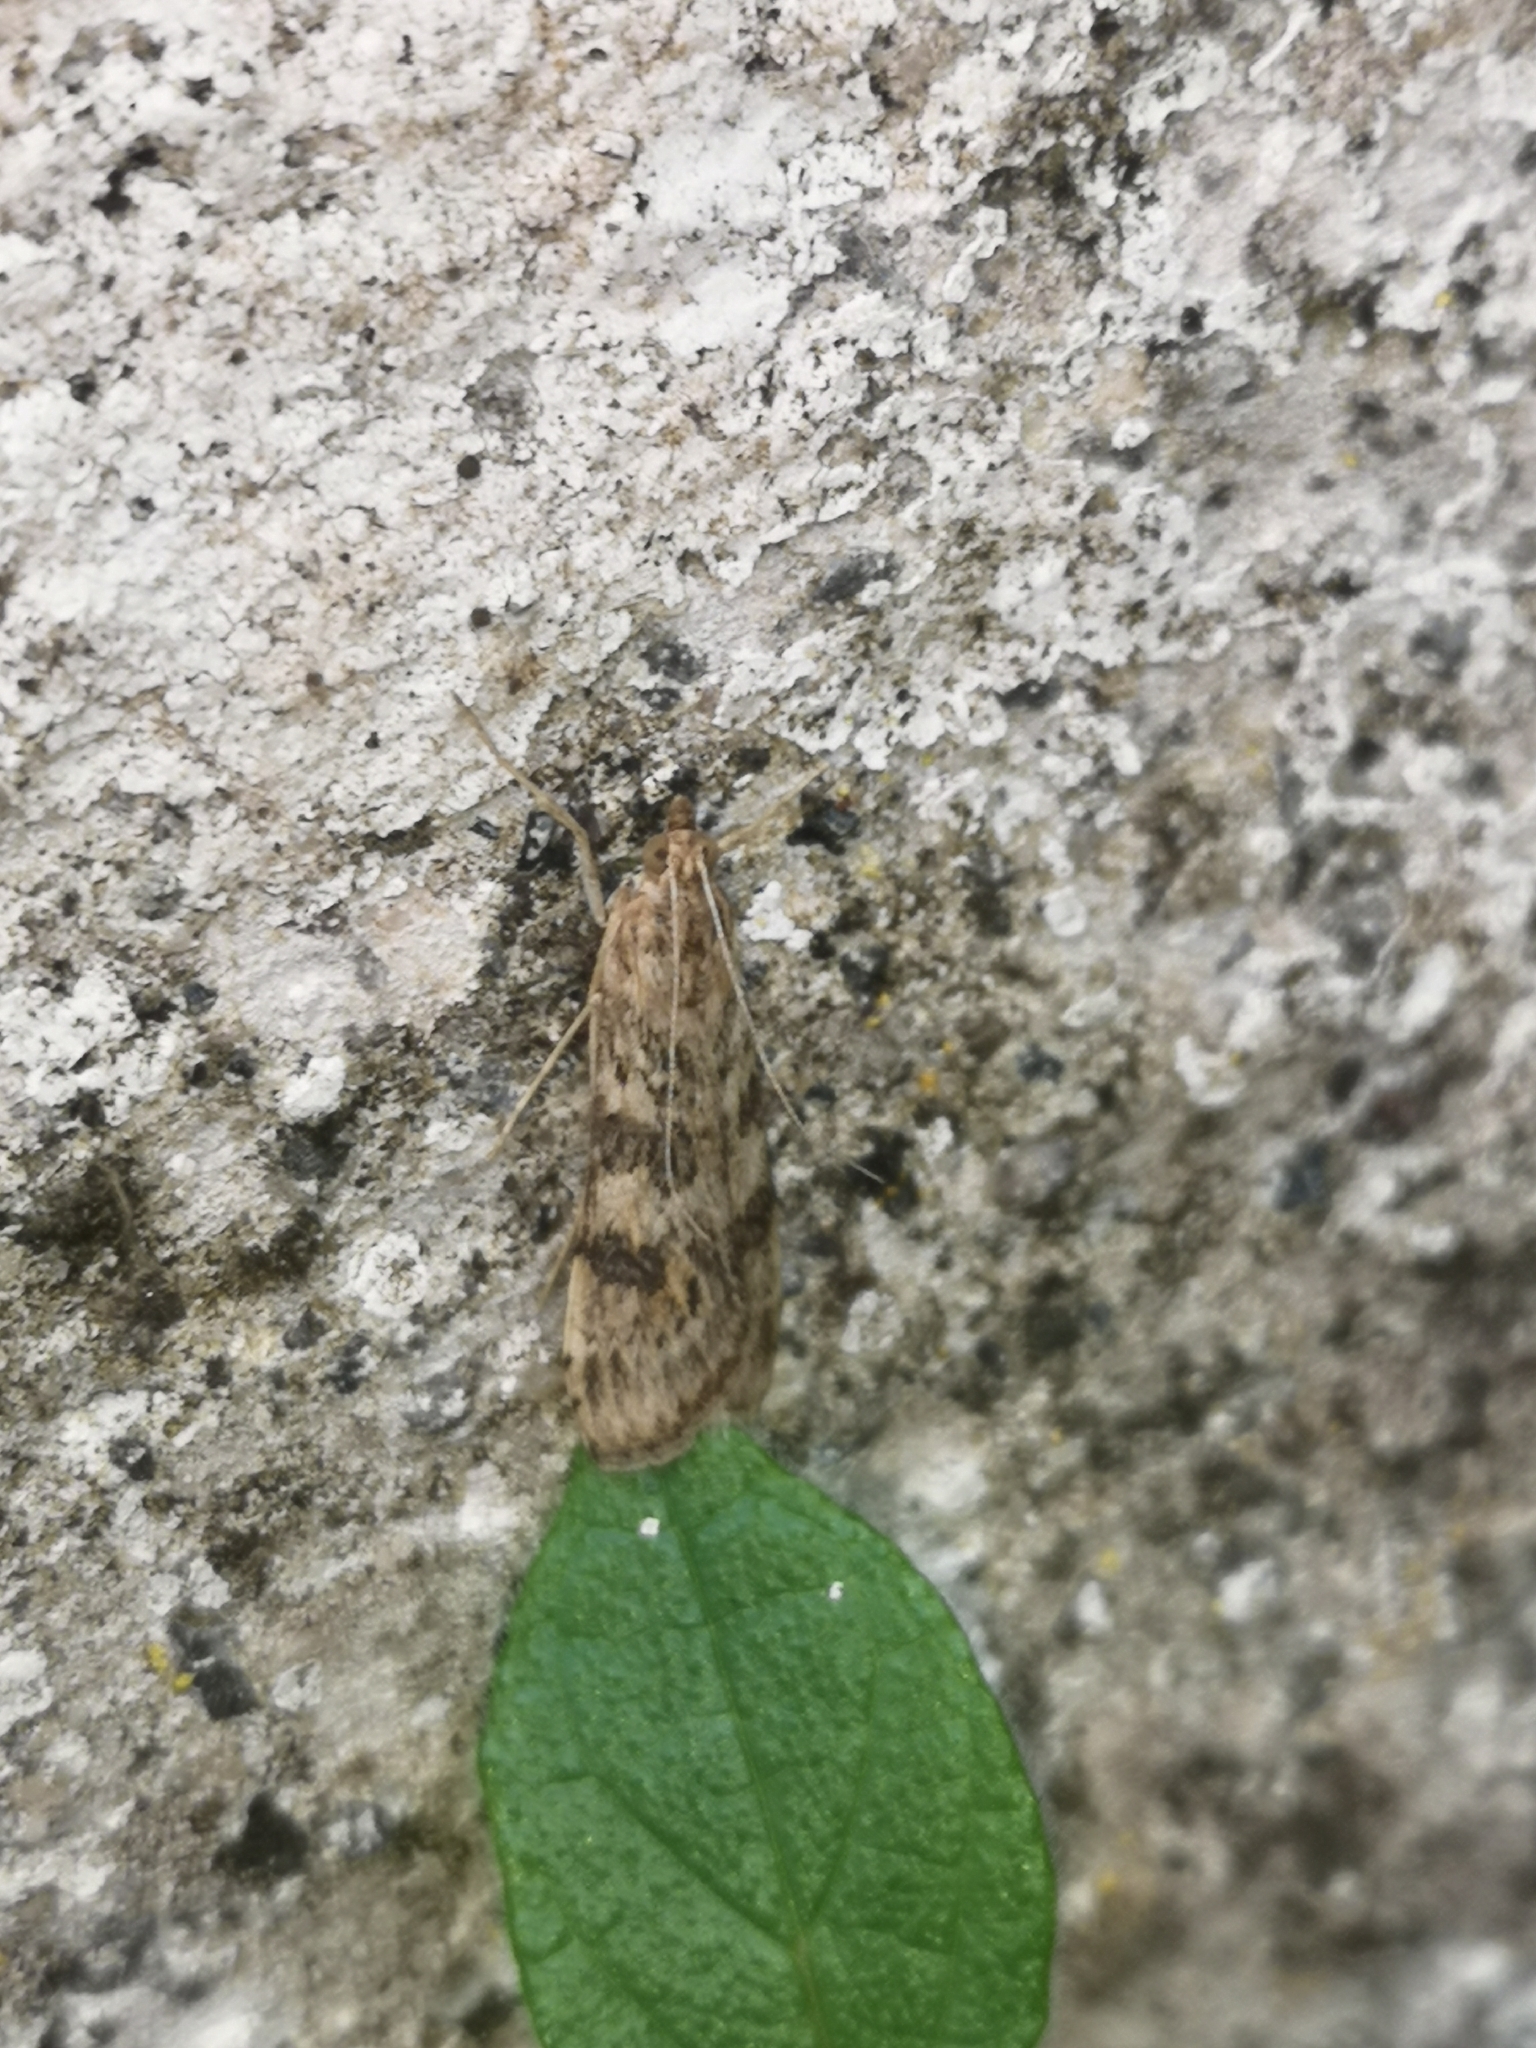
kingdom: Animalia
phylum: Arthropoda
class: Insecta
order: Lepidoptera
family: Crambidae
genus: Nomophila
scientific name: Nomophila noctuella
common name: Rush veneer
